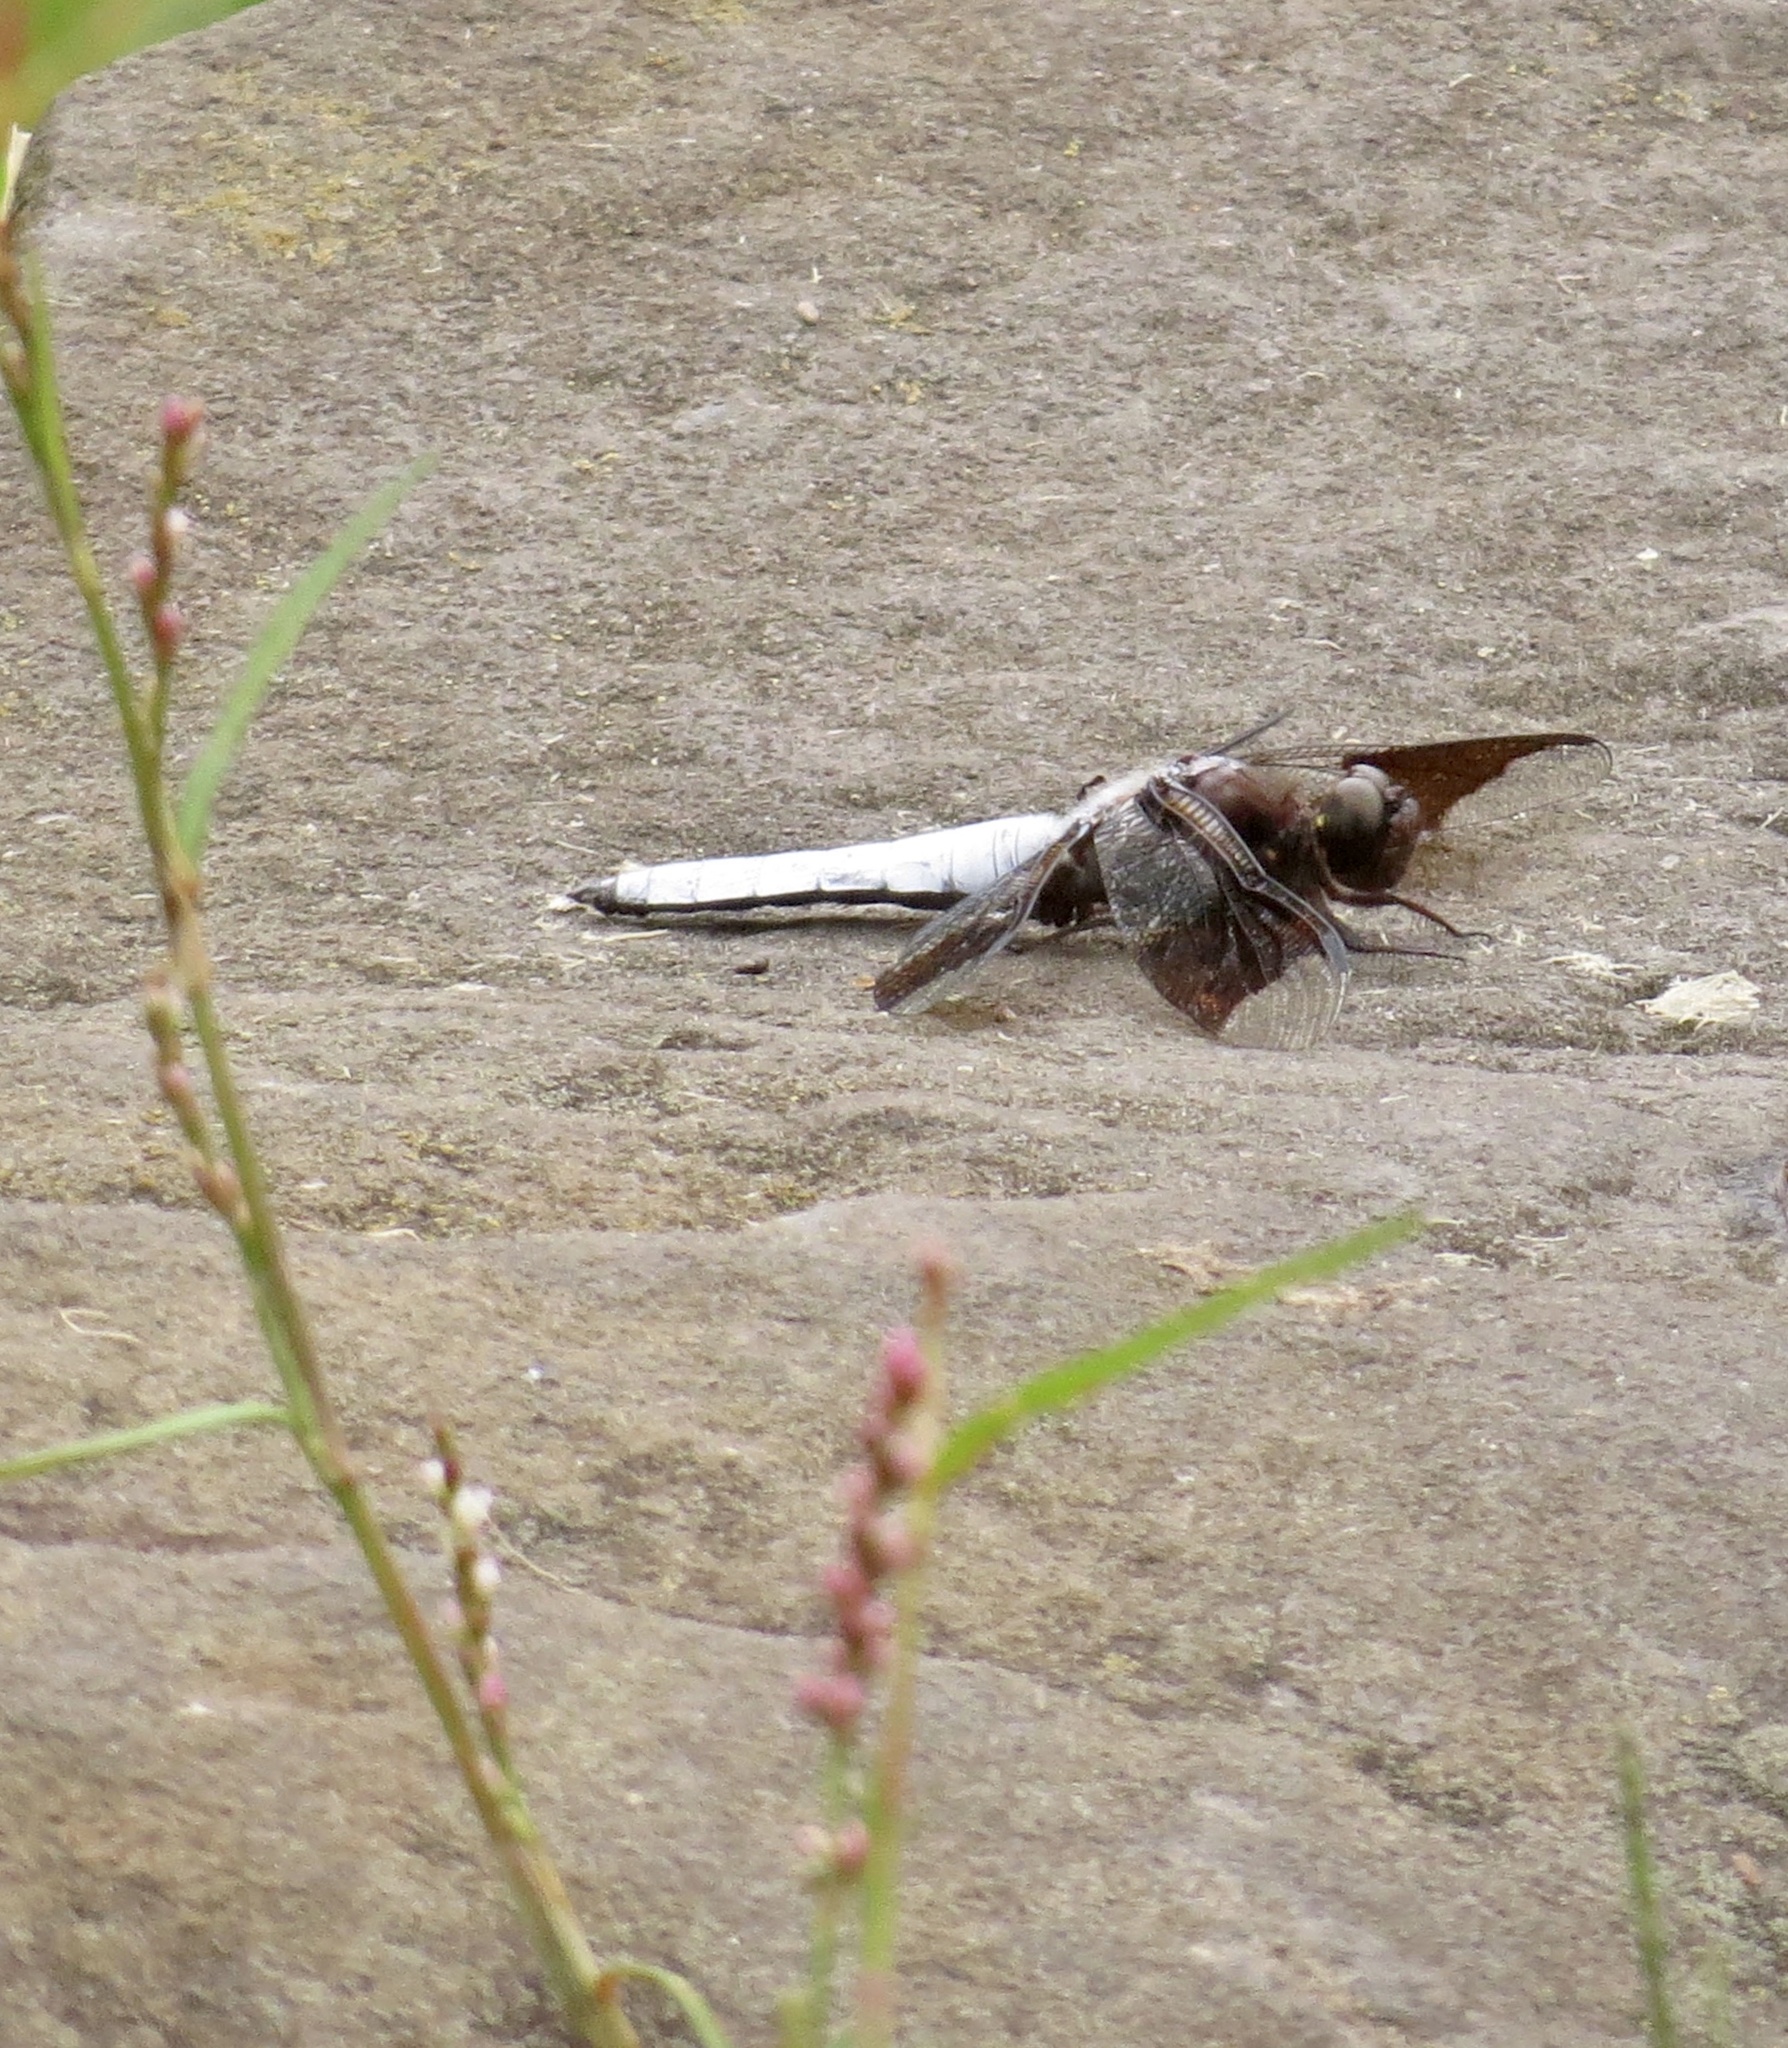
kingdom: Animalia
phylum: Arthropoda
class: Insecta
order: Odonata
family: Libellulidae
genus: Plathemis
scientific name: Plathemis lydia
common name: Common whitetail
